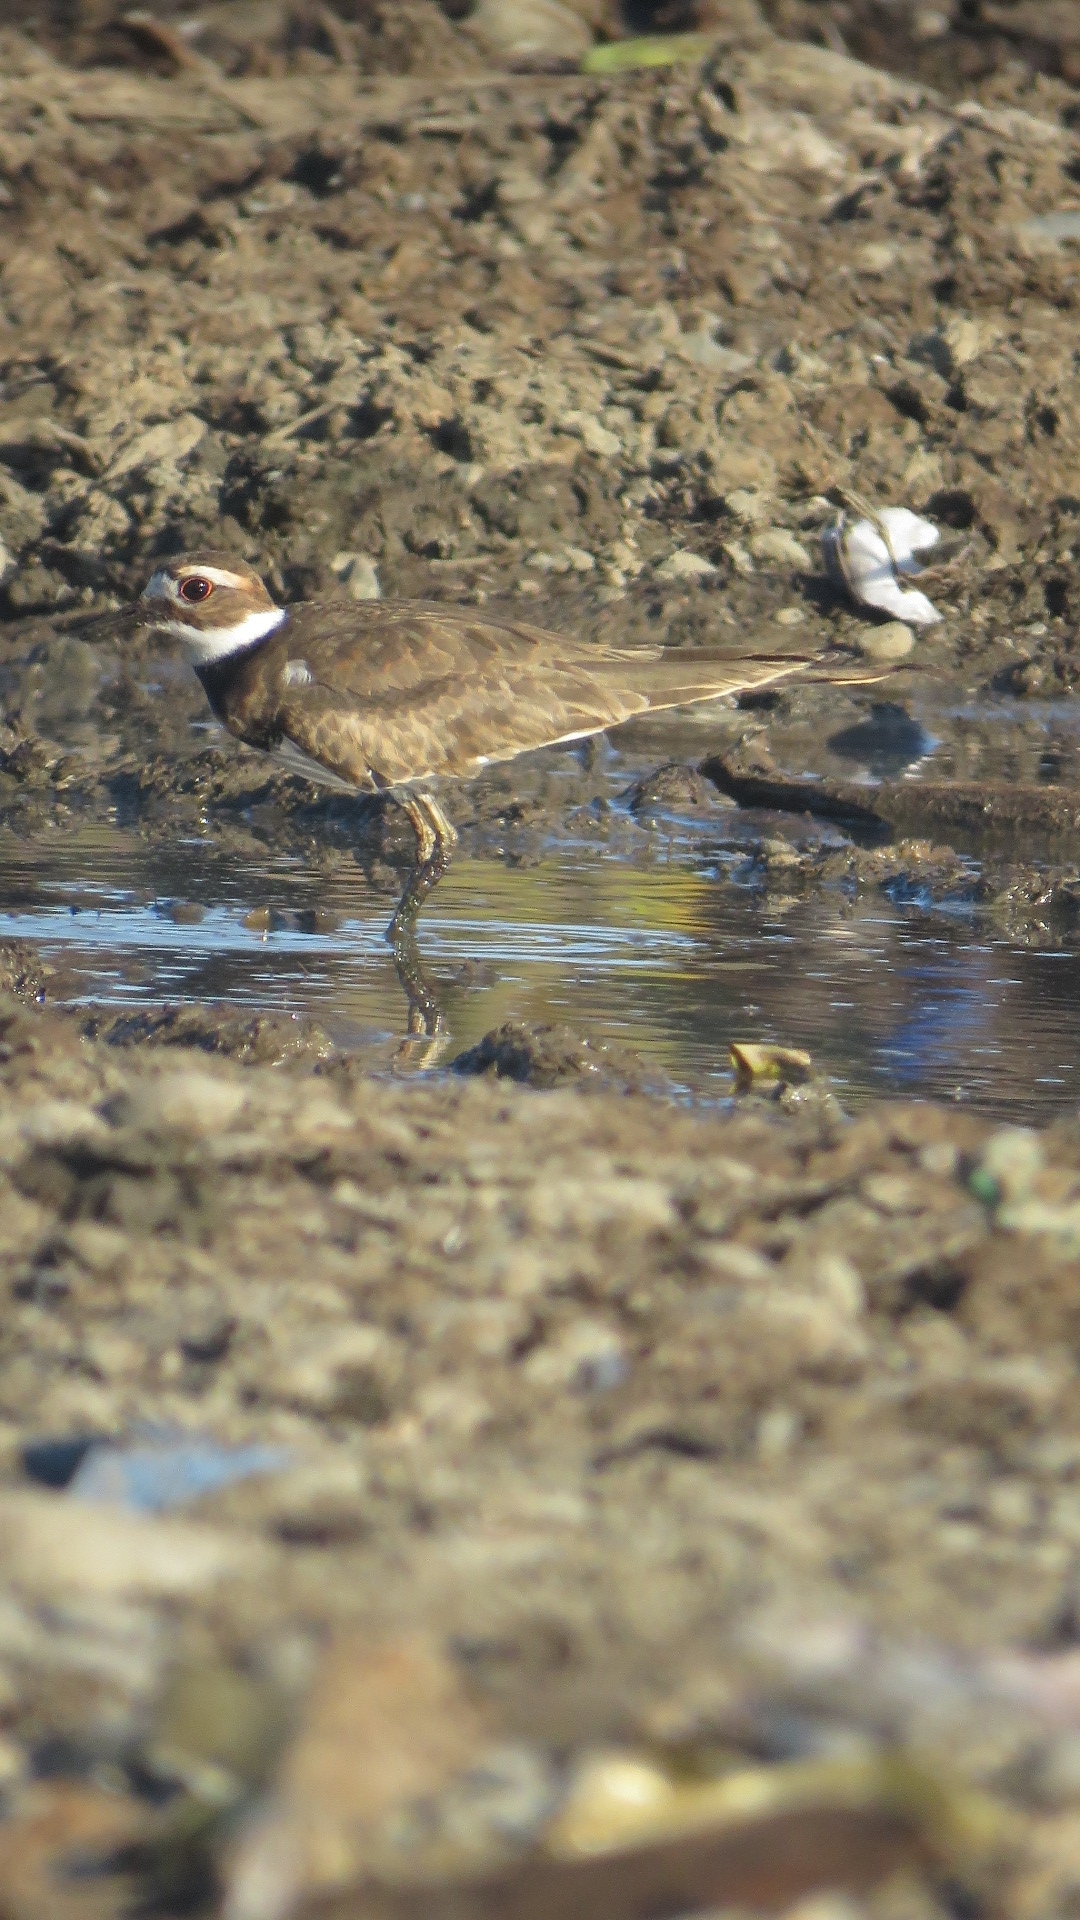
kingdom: Animalia
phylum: Chordata
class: Aves
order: Charadriiformes
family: Charadriidae
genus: Charadrius
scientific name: Charadrius vociferus
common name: Killdeer
